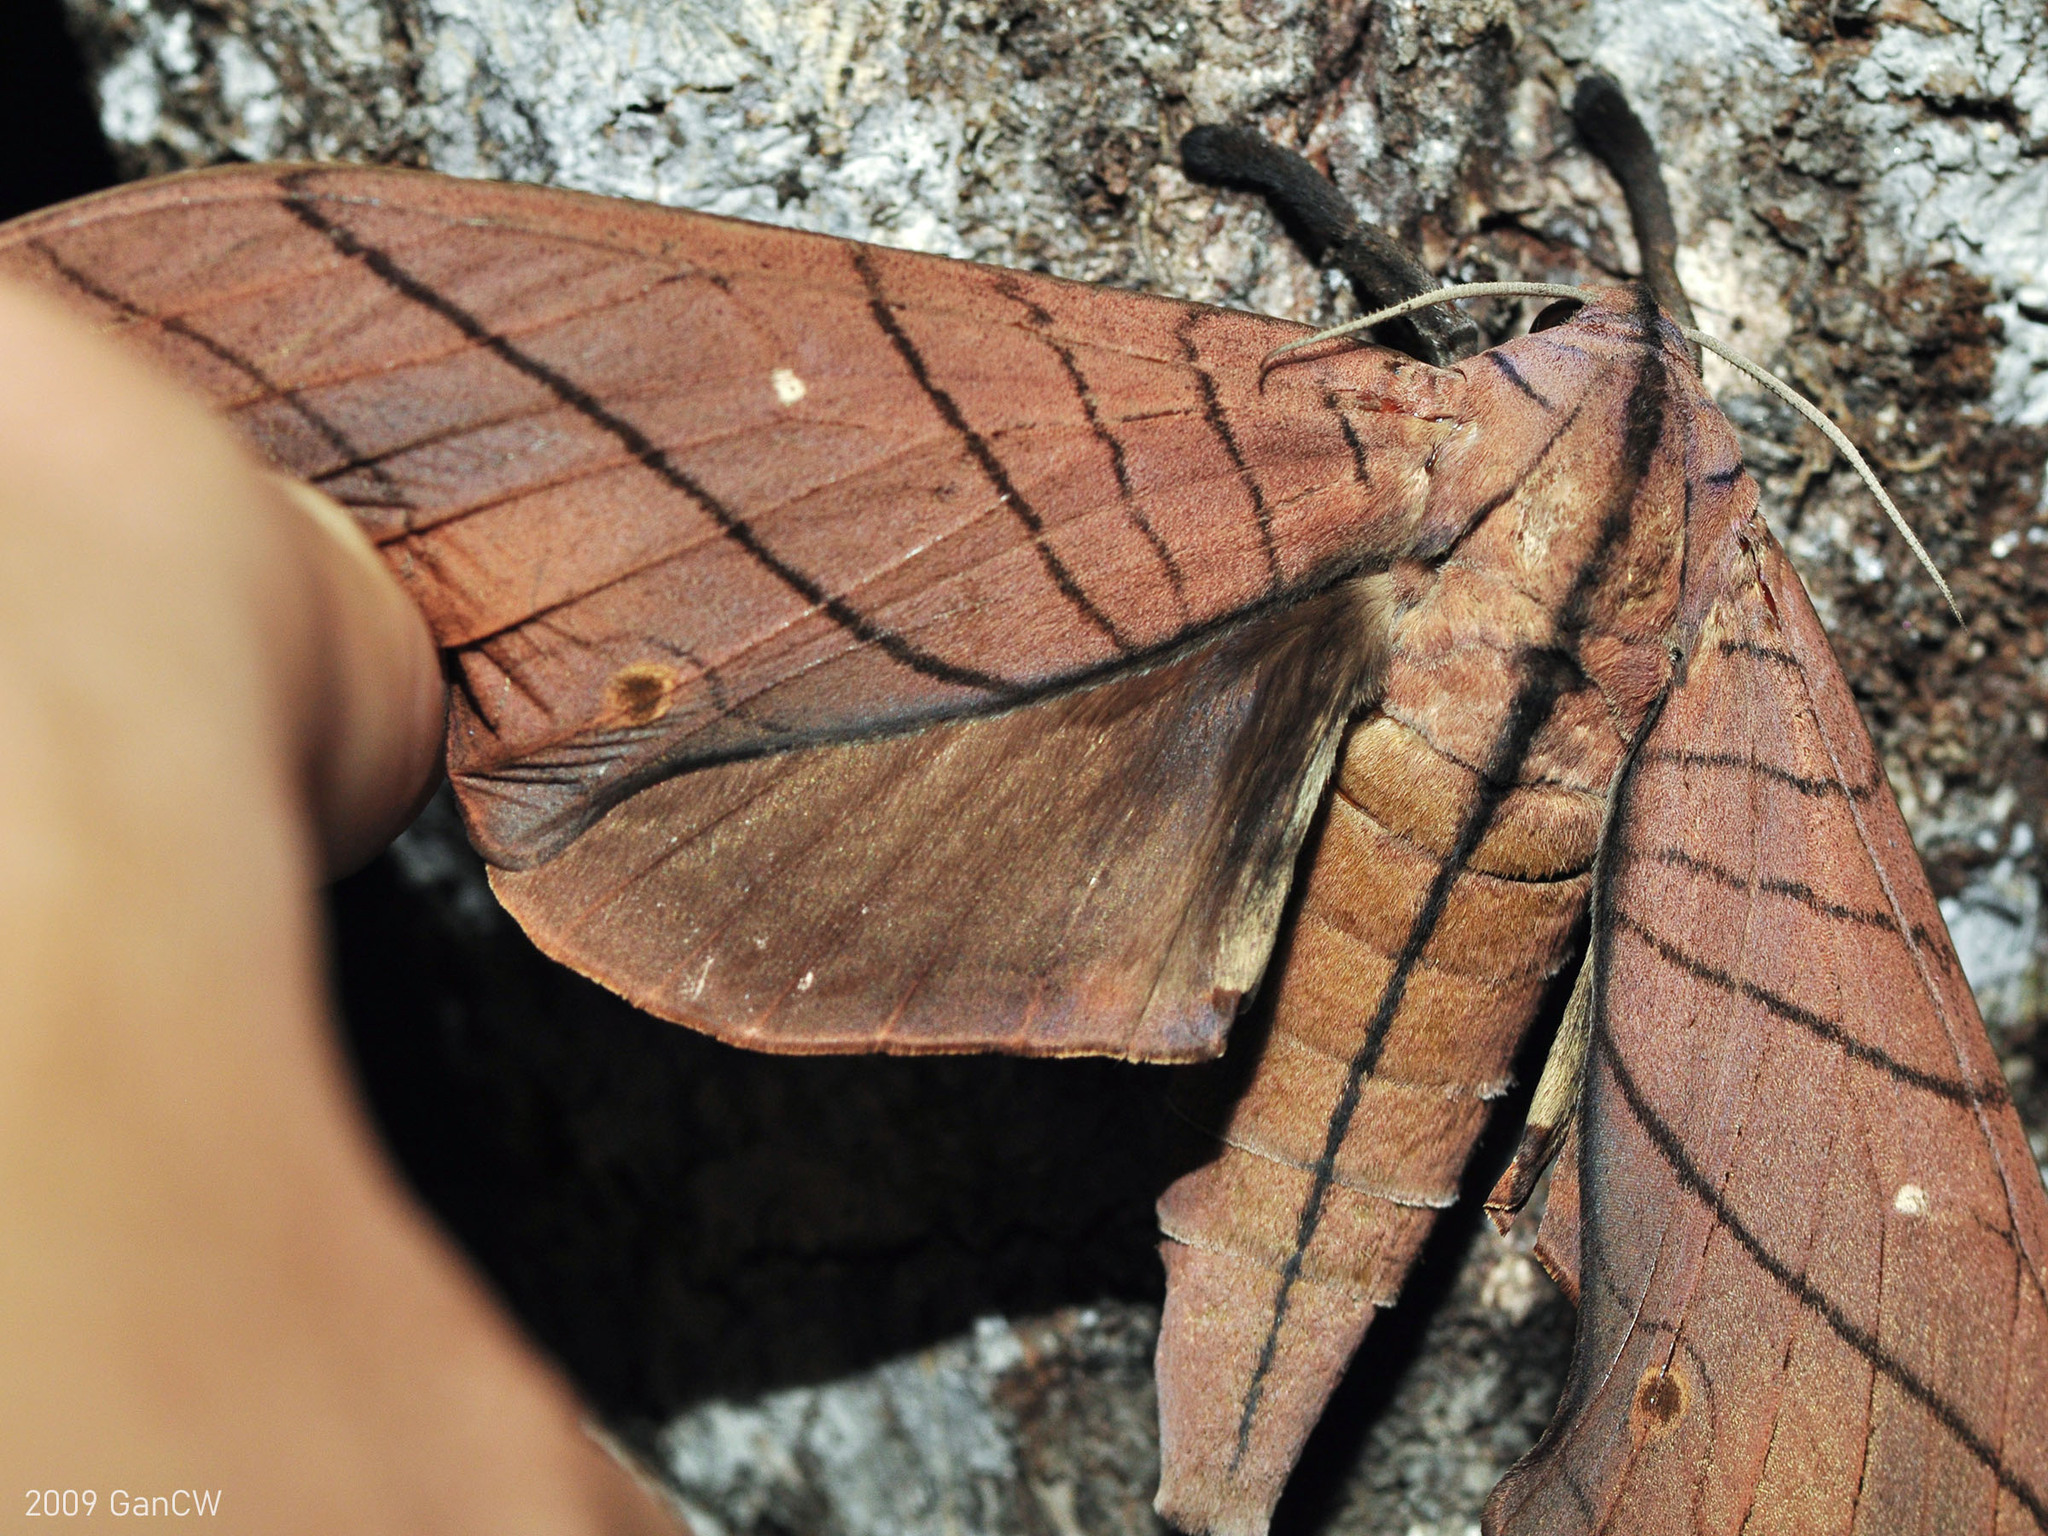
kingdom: Animalia
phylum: Arthropoda
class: Insecta
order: Lepidoptera
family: Sphingidae
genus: Marumba
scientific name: Marumba cristata
